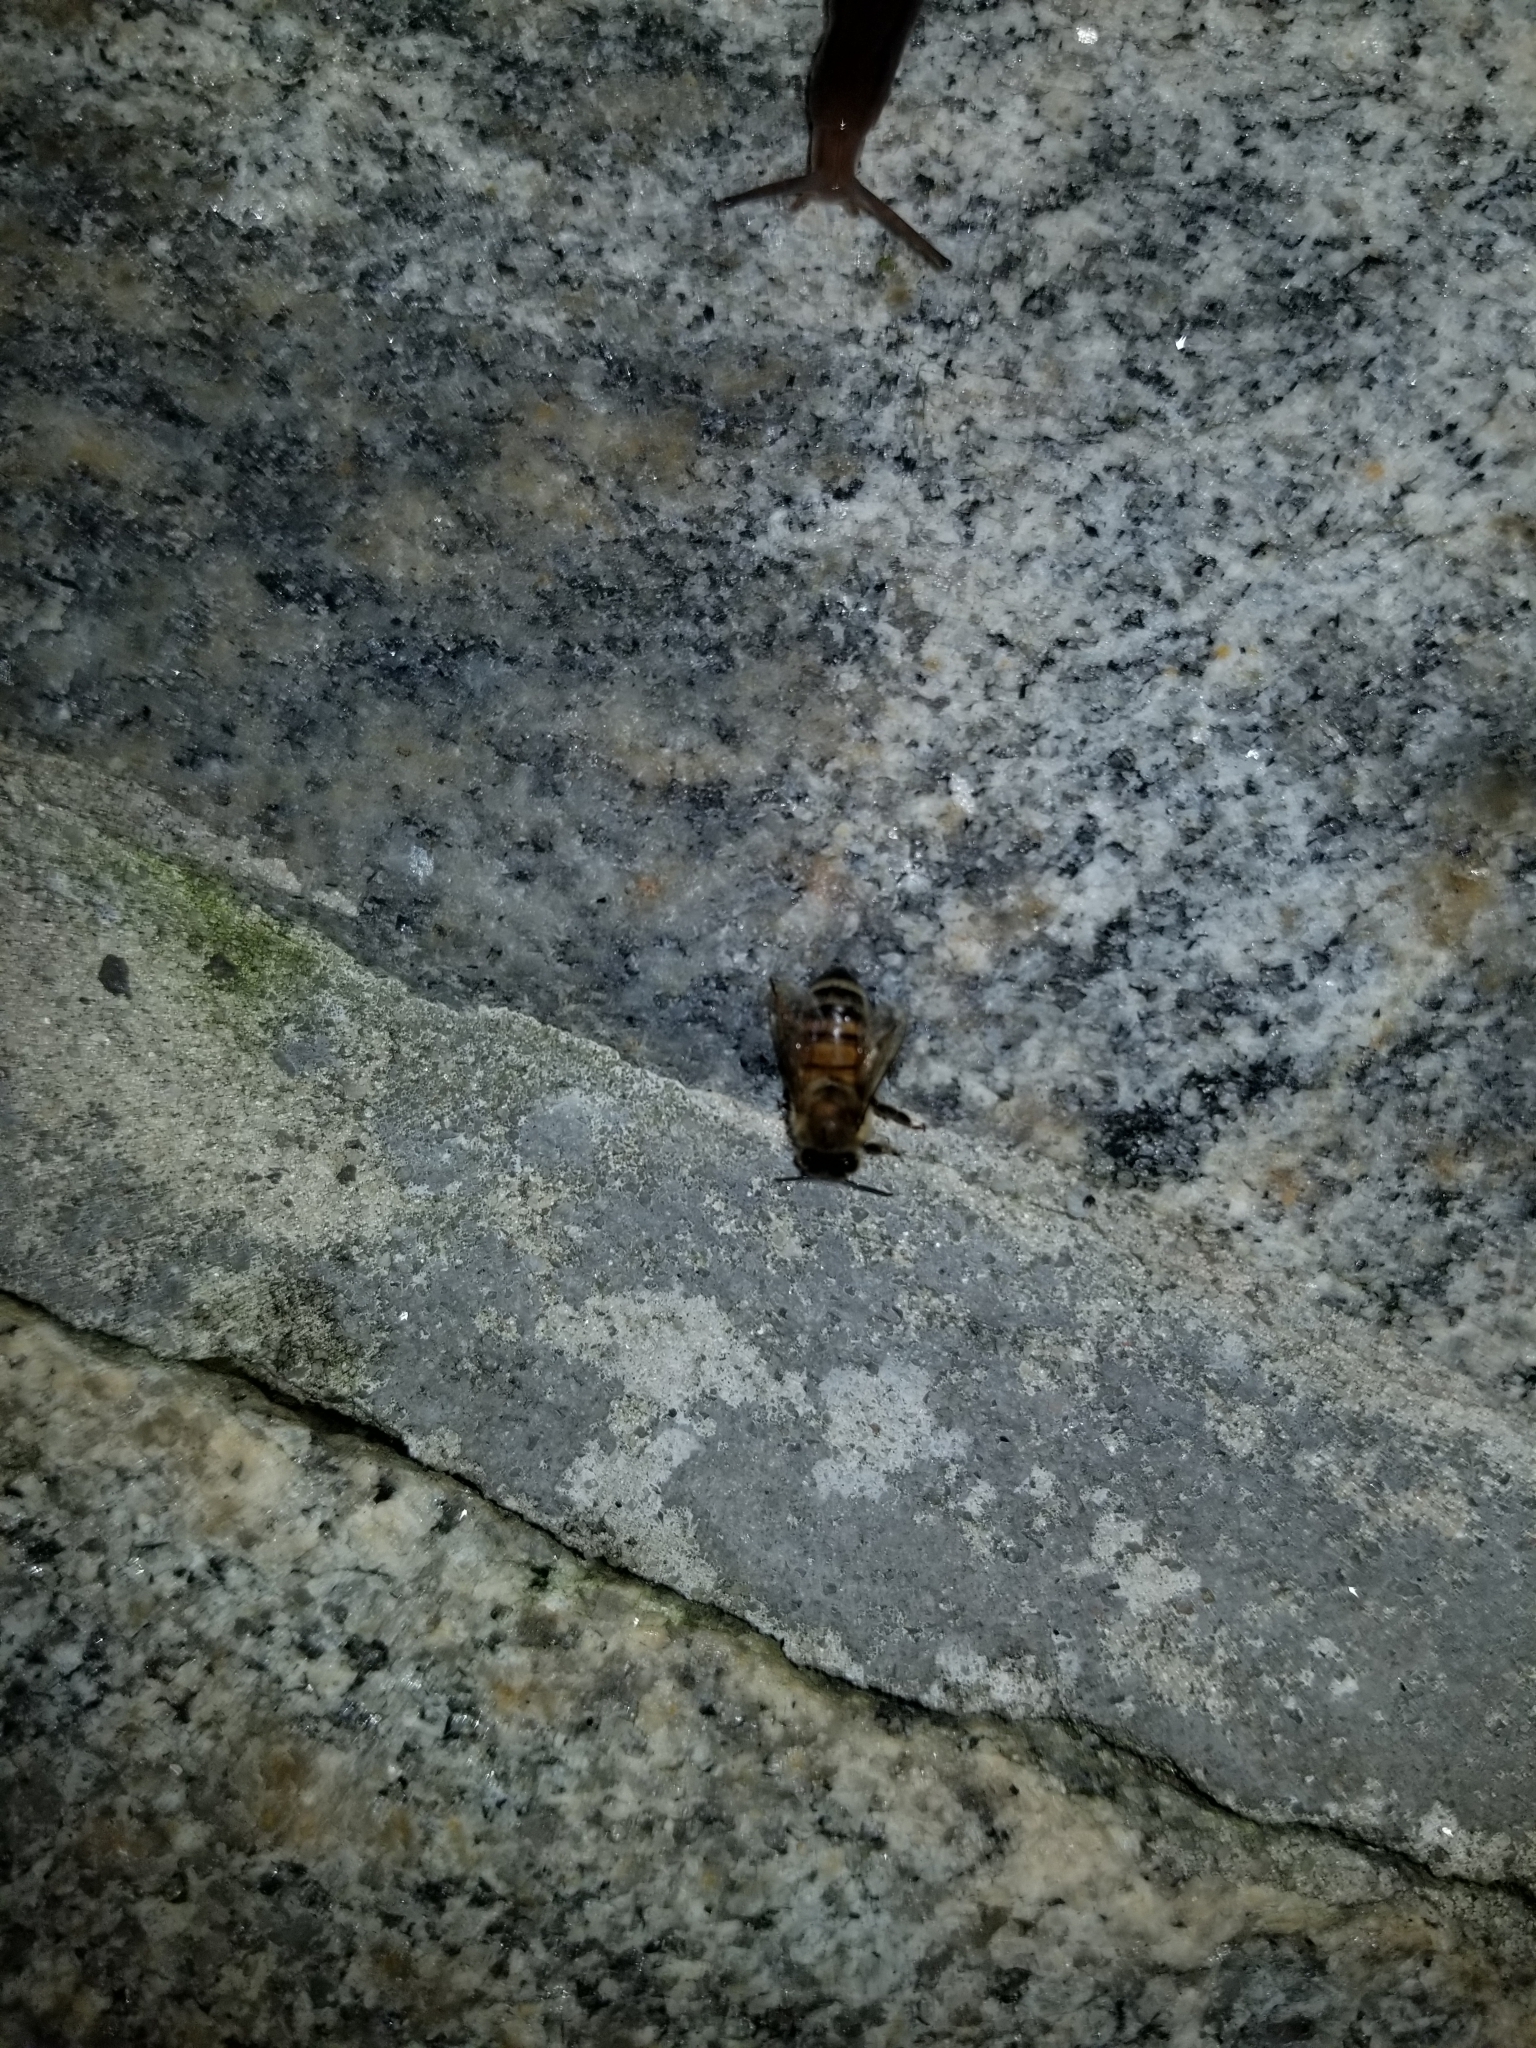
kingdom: Animalia
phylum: Arthropoda
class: Insecta
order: Hymenoptera
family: Apidae
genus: Apis
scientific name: Apis mellifera
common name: Honey bee
